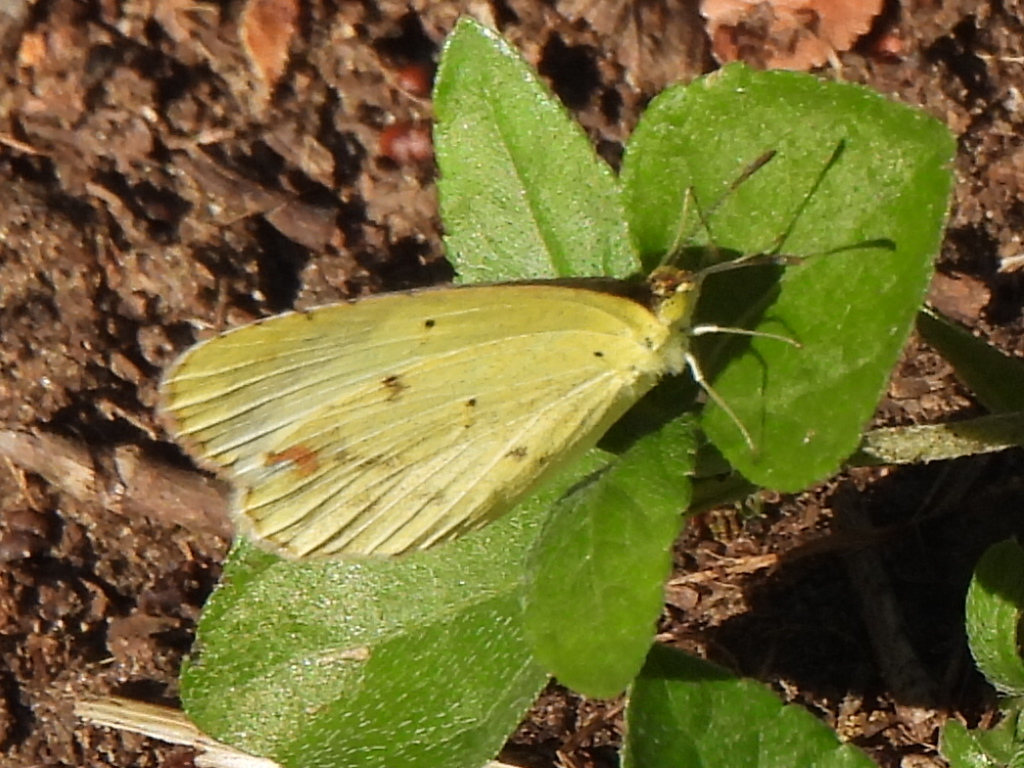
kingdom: Animalia
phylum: Arthropoda
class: Insecta
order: Lepidoptera
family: Pieridae
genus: Pyrisitia
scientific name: Pyrisitia lisa
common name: Little yellow
